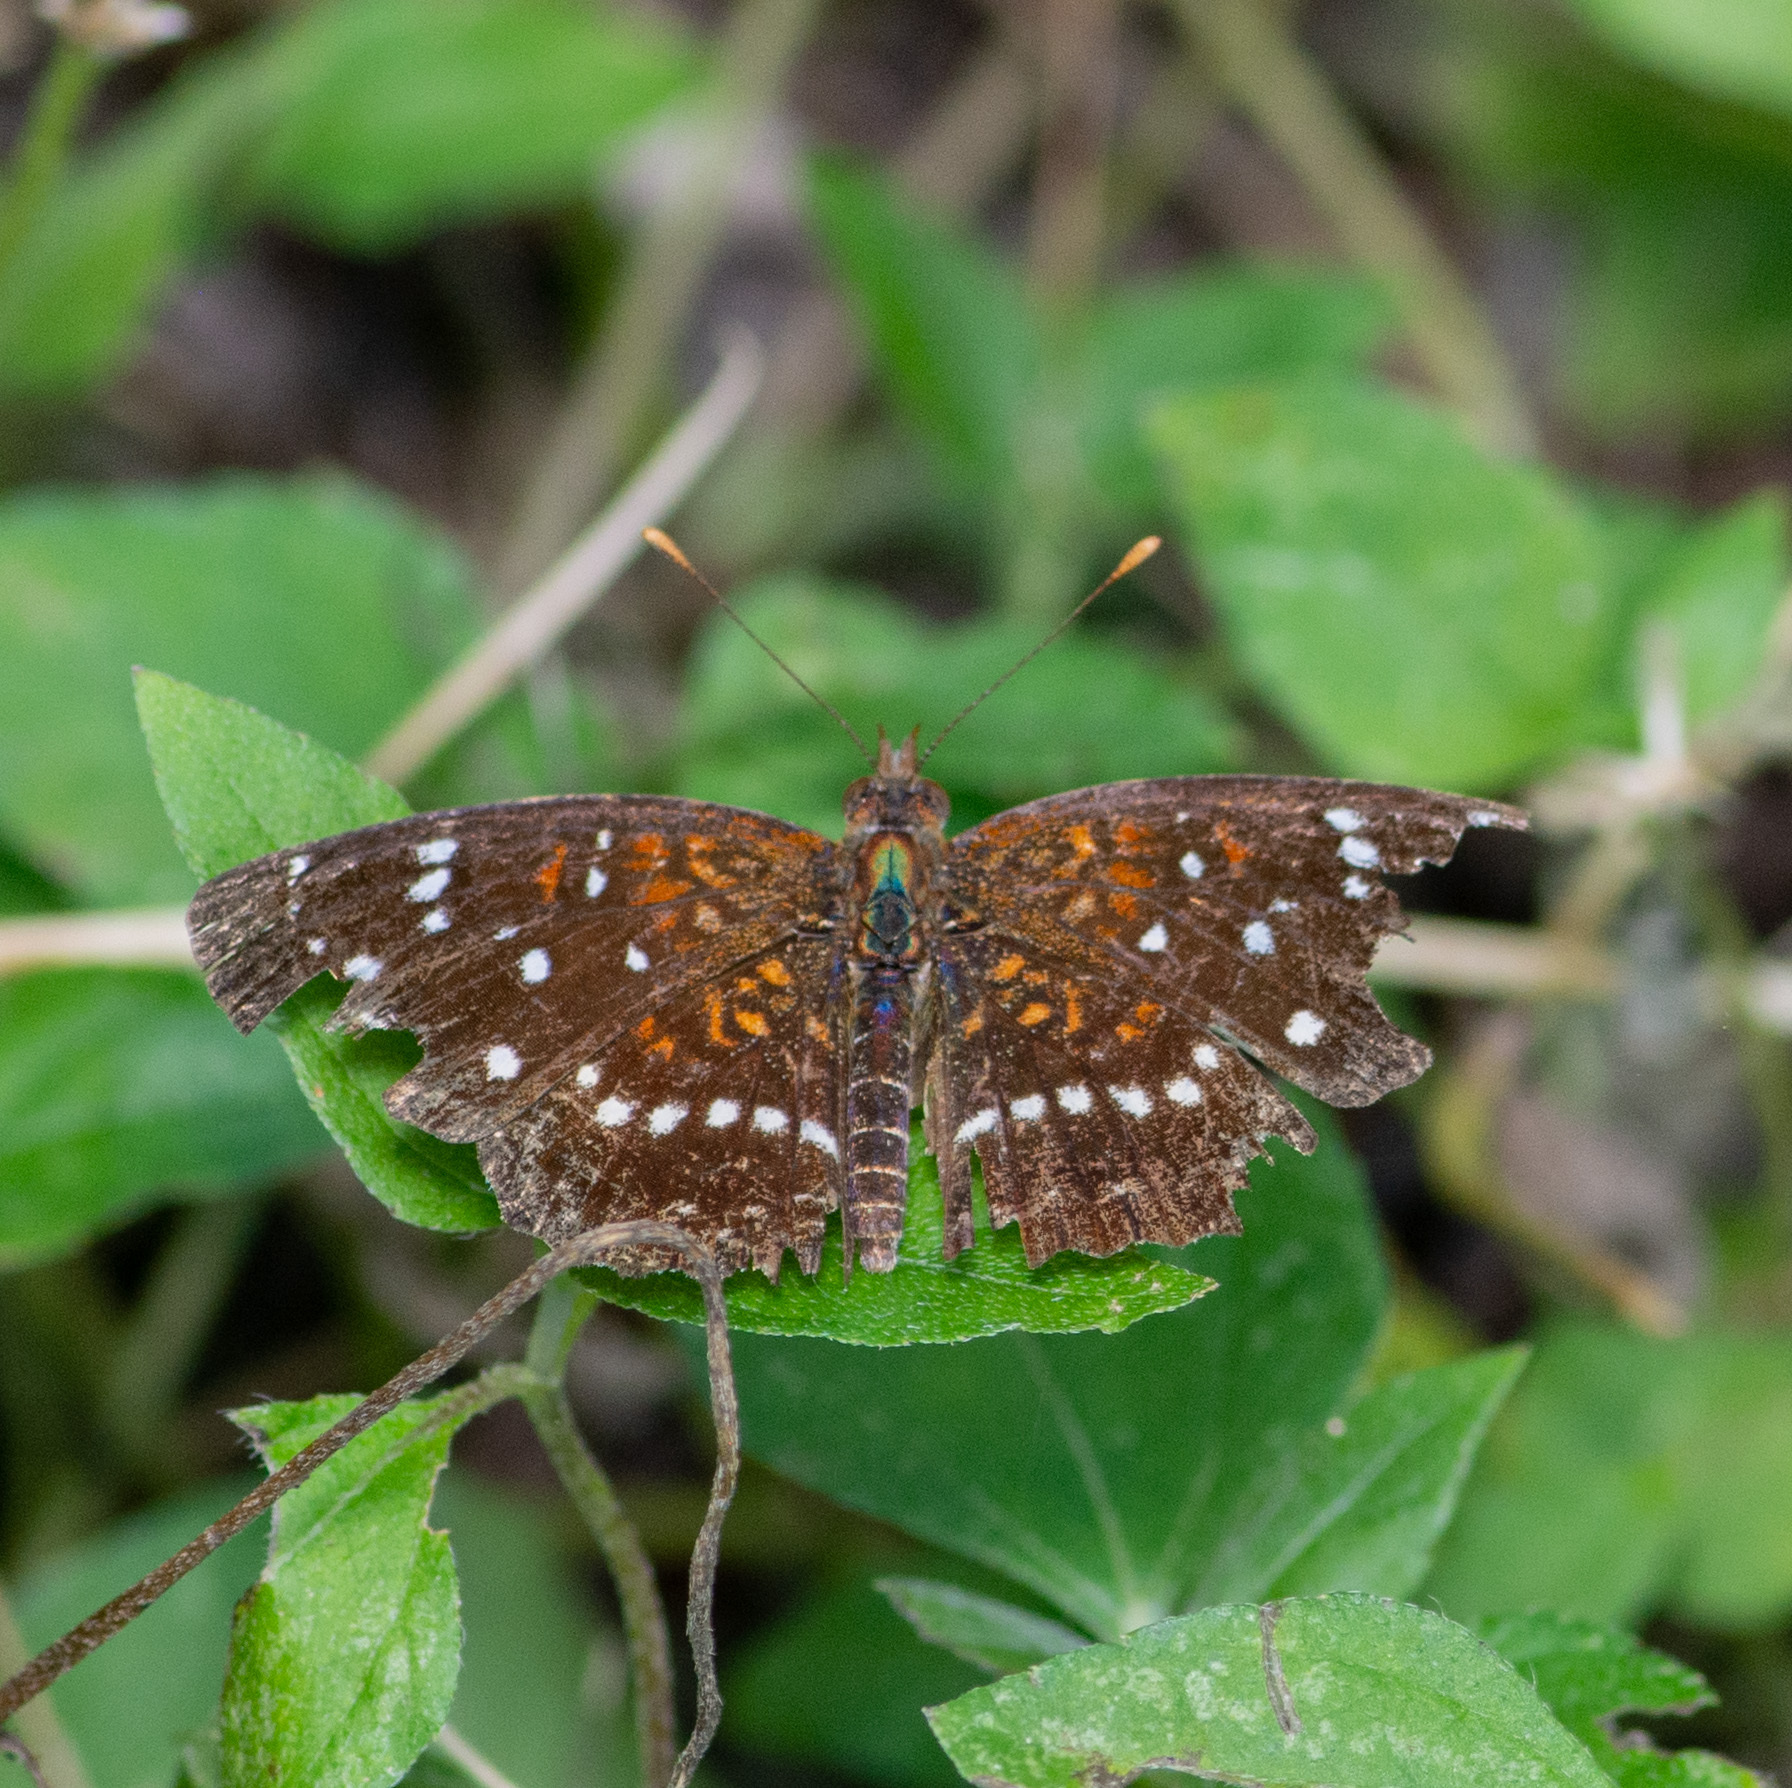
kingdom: Animalia
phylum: Arthropoda
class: Insecta
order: Lepidoptera
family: Nymphalidae
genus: Anthanassa
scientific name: Anthanassa texana
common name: Texan crescent
